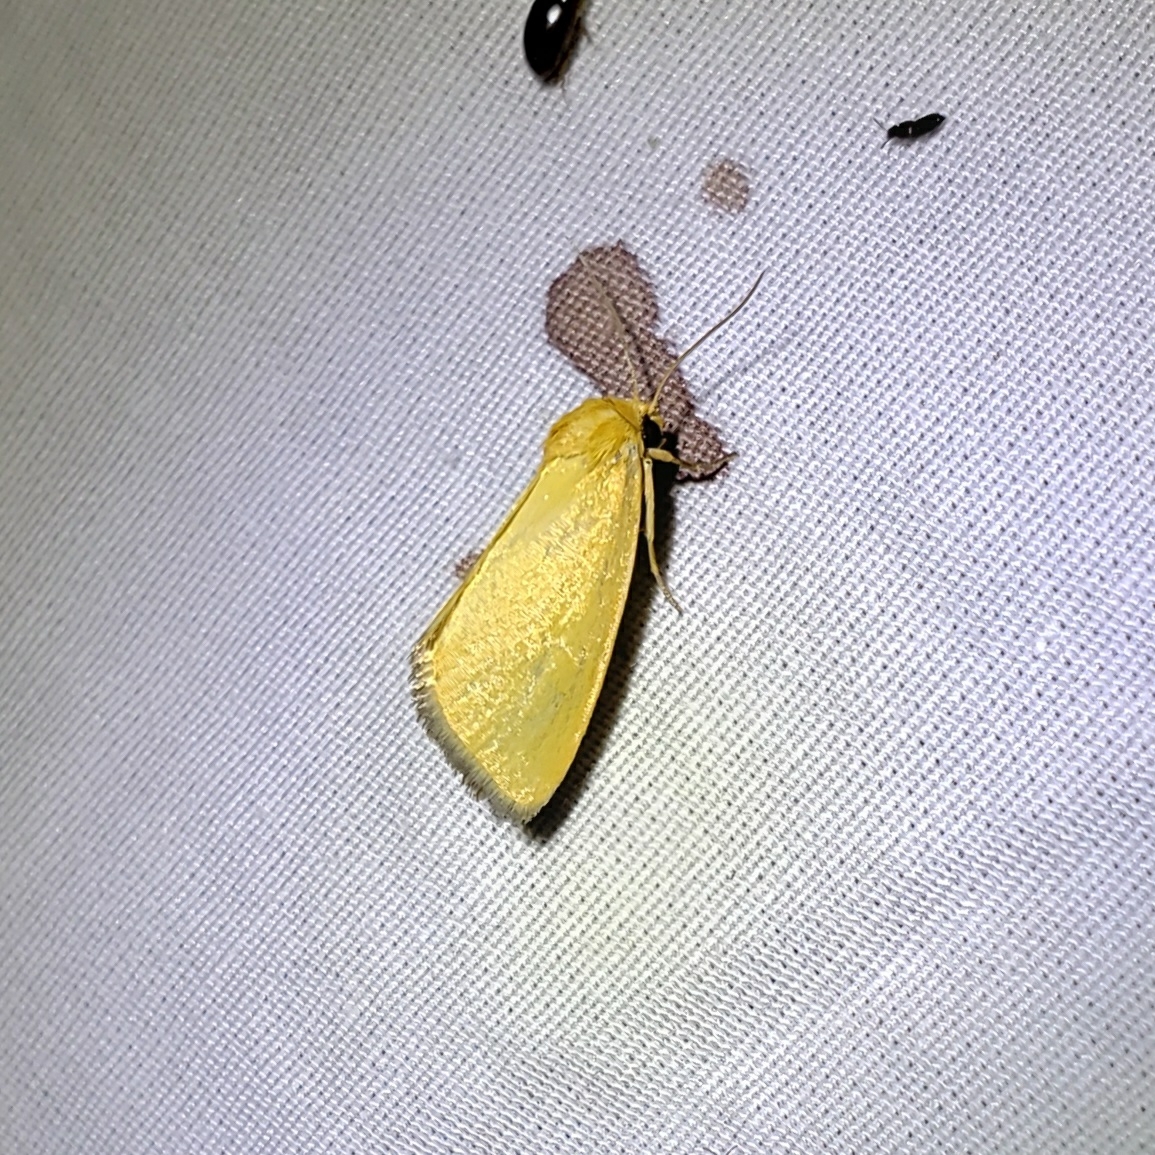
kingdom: Animalia
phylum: Arthropoda
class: Insecta
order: Lepidoptera
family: Noctuidae
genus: Antaplaga
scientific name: Antaplaga Eulithosia composita
